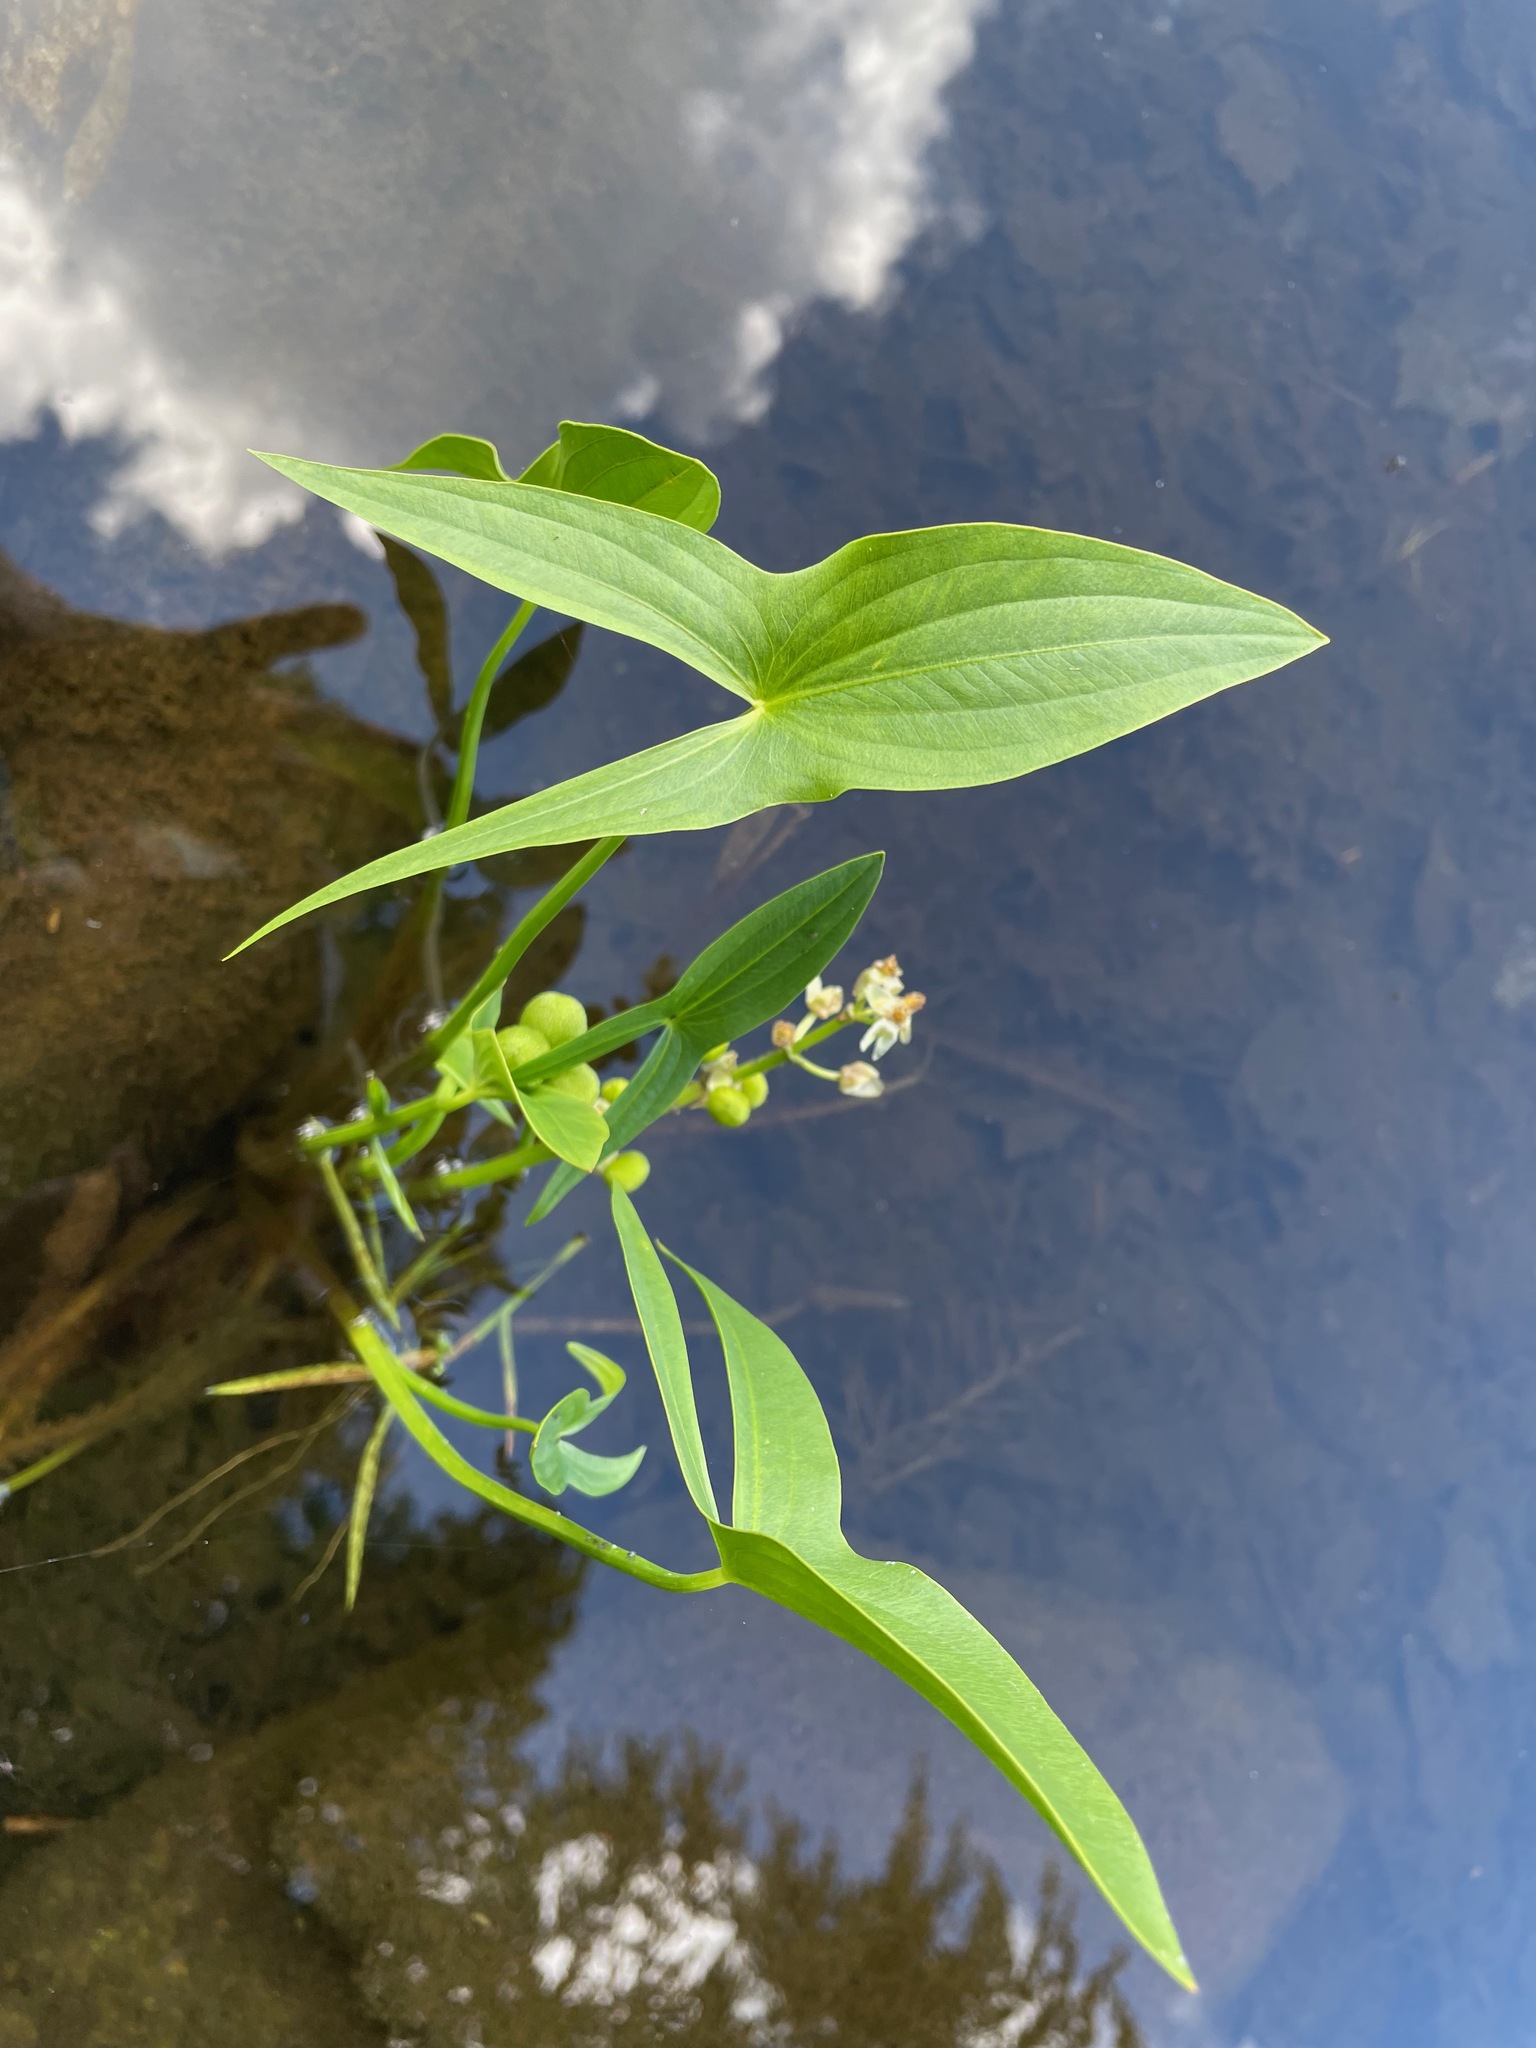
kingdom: Plantae
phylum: Tracheophyta
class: Liliopsida
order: Alismatales
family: Alismataceae
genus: Sagittaria
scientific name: Sagittaria latifolia
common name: Duck-potato
